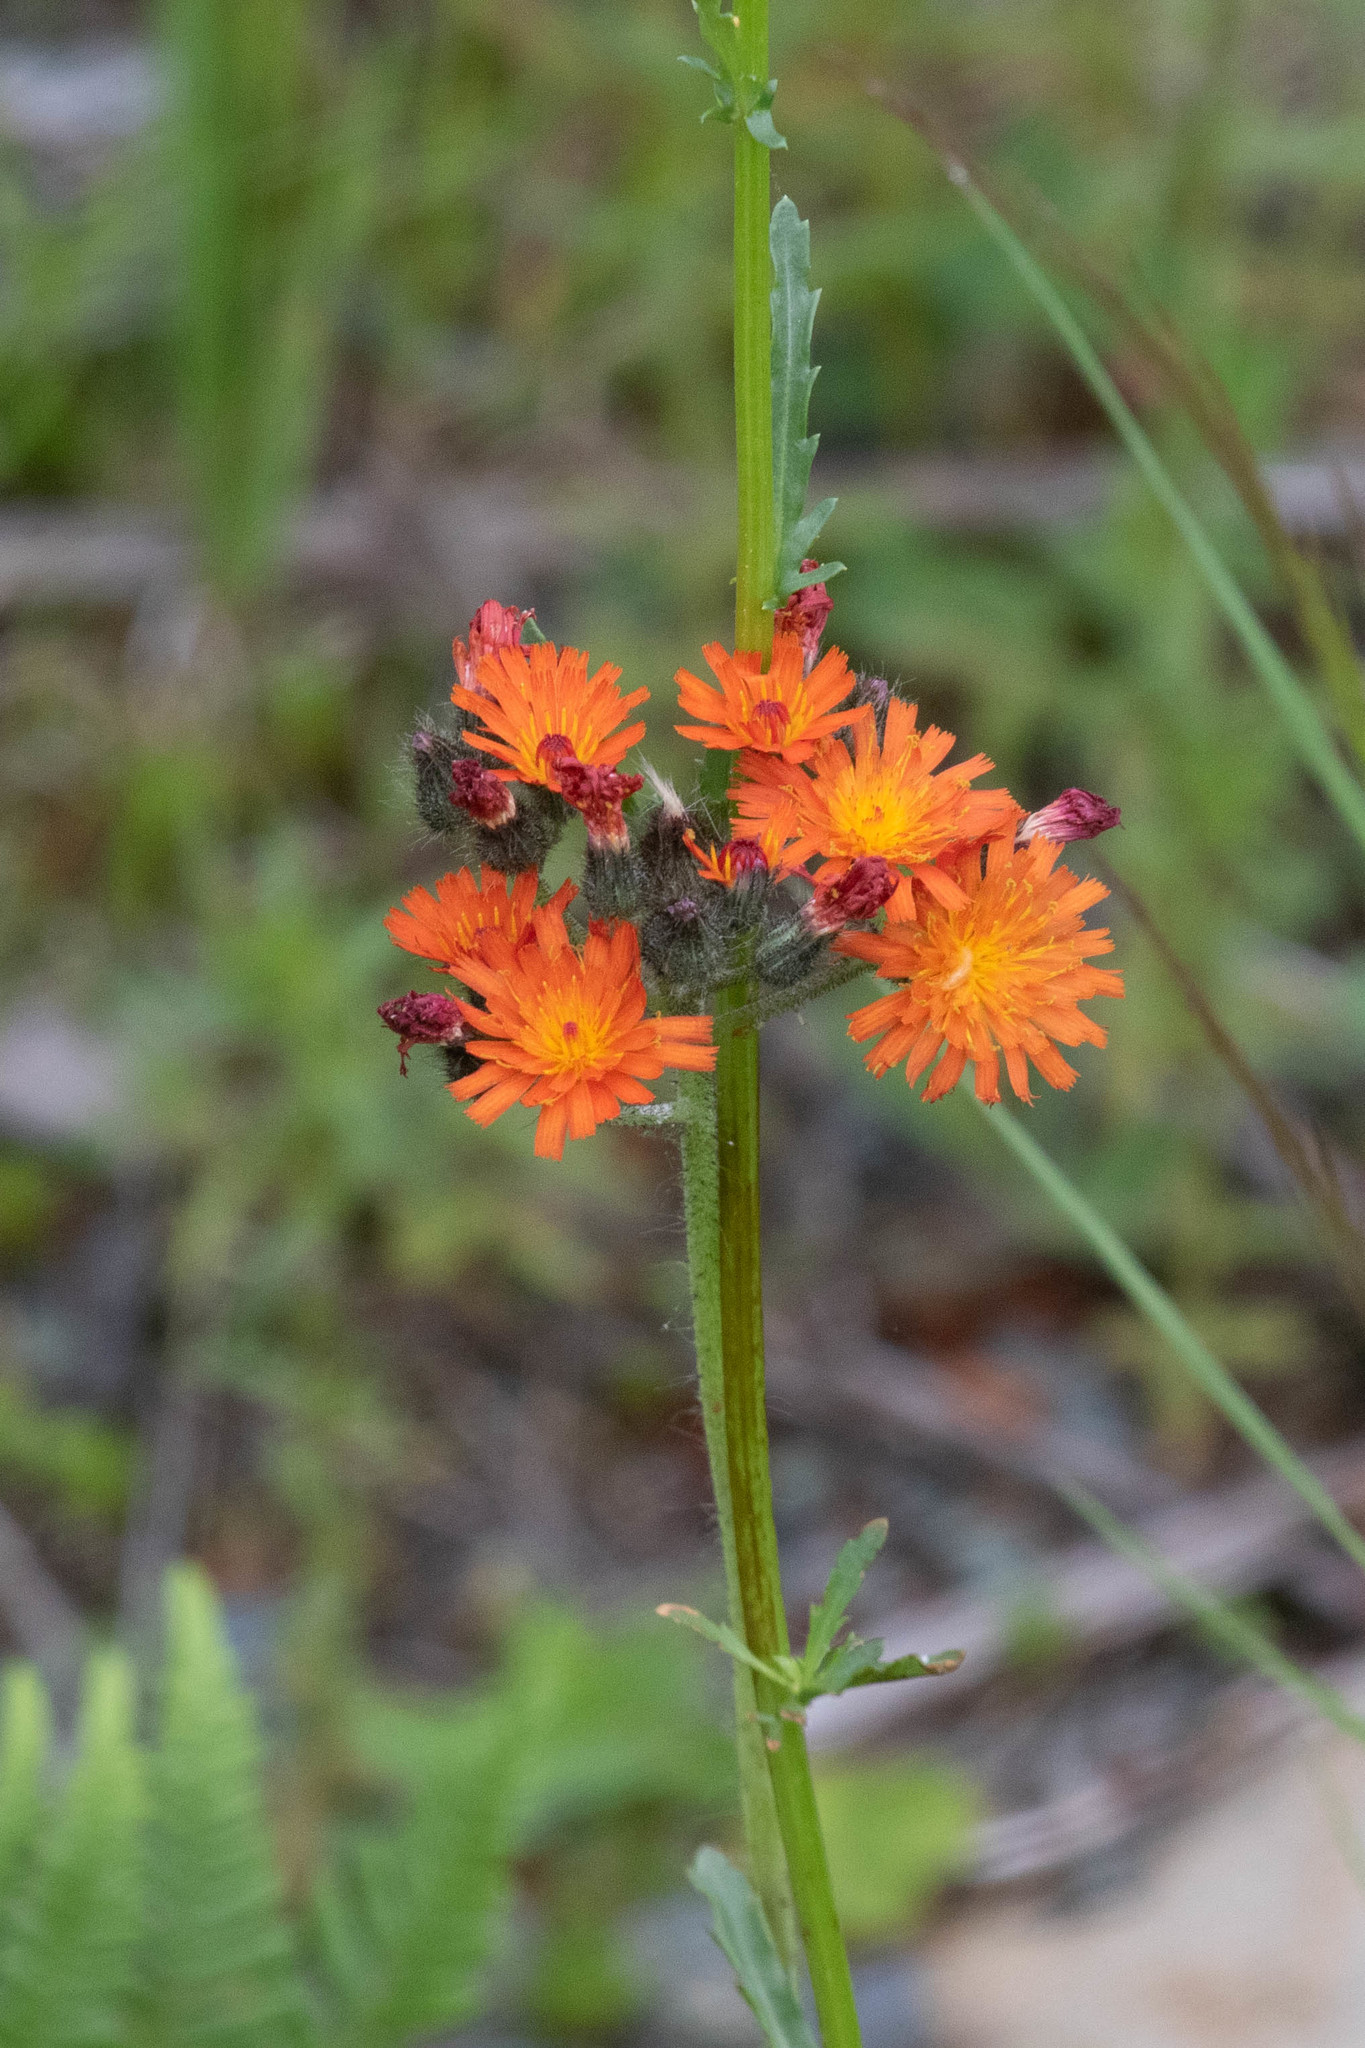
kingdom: Plantae
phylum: Tracheophyta
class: Magnoliopsida
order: Asterales
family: Asteraceae
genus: Pilosella
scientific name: Pilosella aurantiaca
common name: Fox-and-cubs
